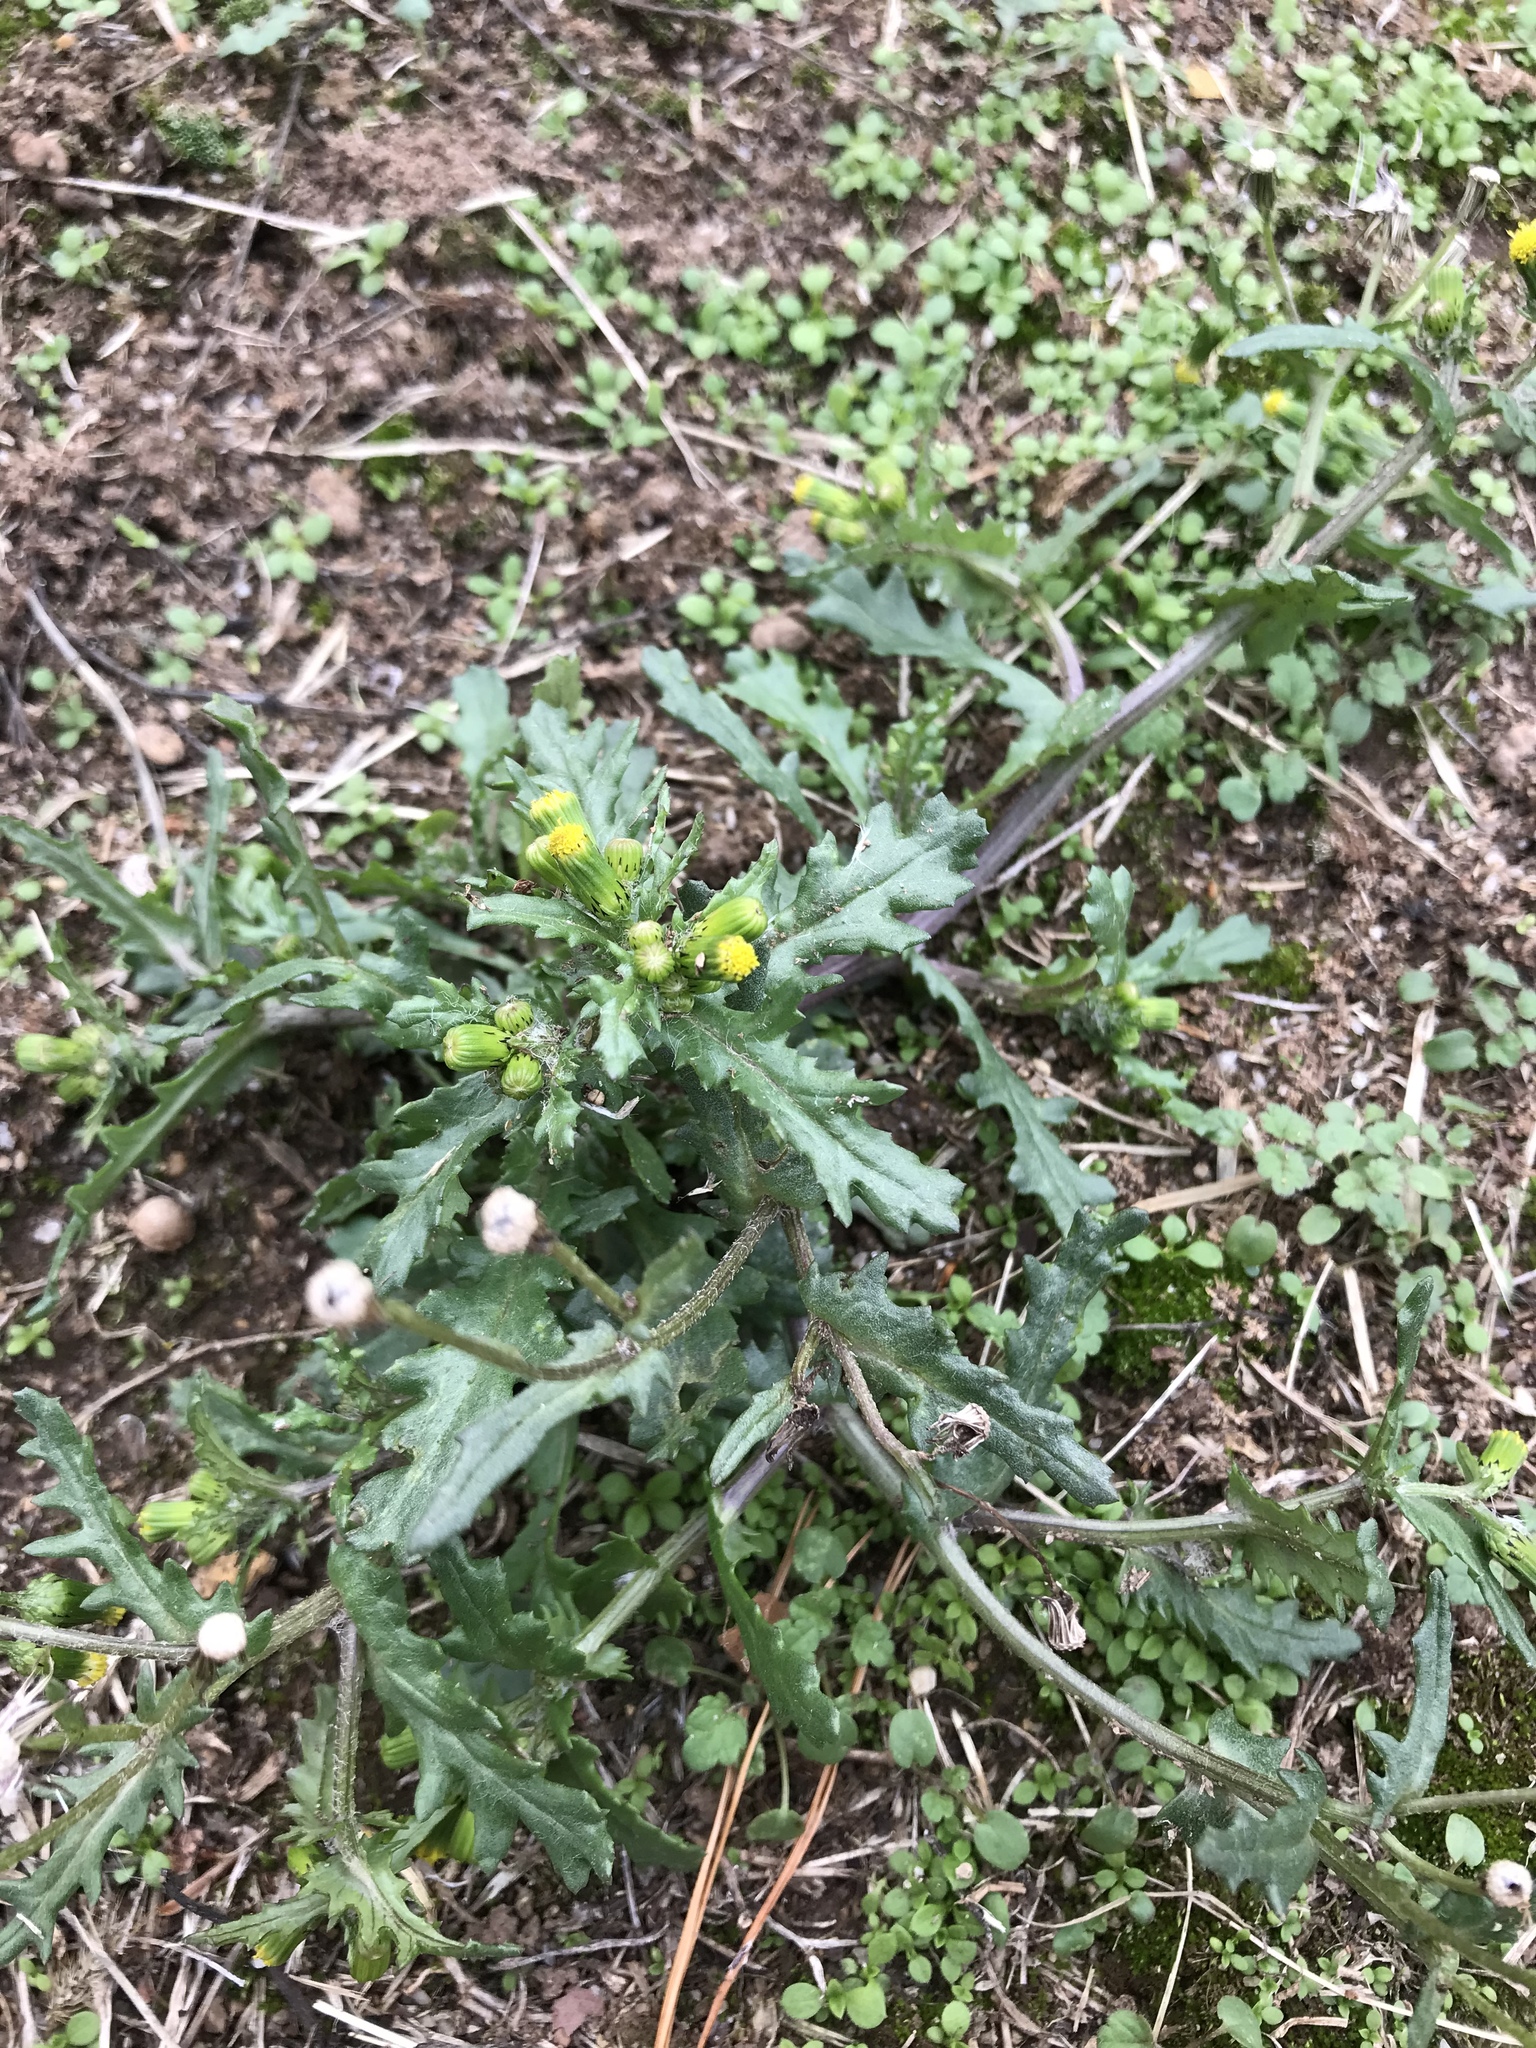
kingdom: Plantae
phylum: Tracheophyta
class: Magnoliopsida
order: Asterales
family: Asteraceae
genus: Senecio
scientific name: Senecio vulgaris
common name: Old-man-in-the-spring
